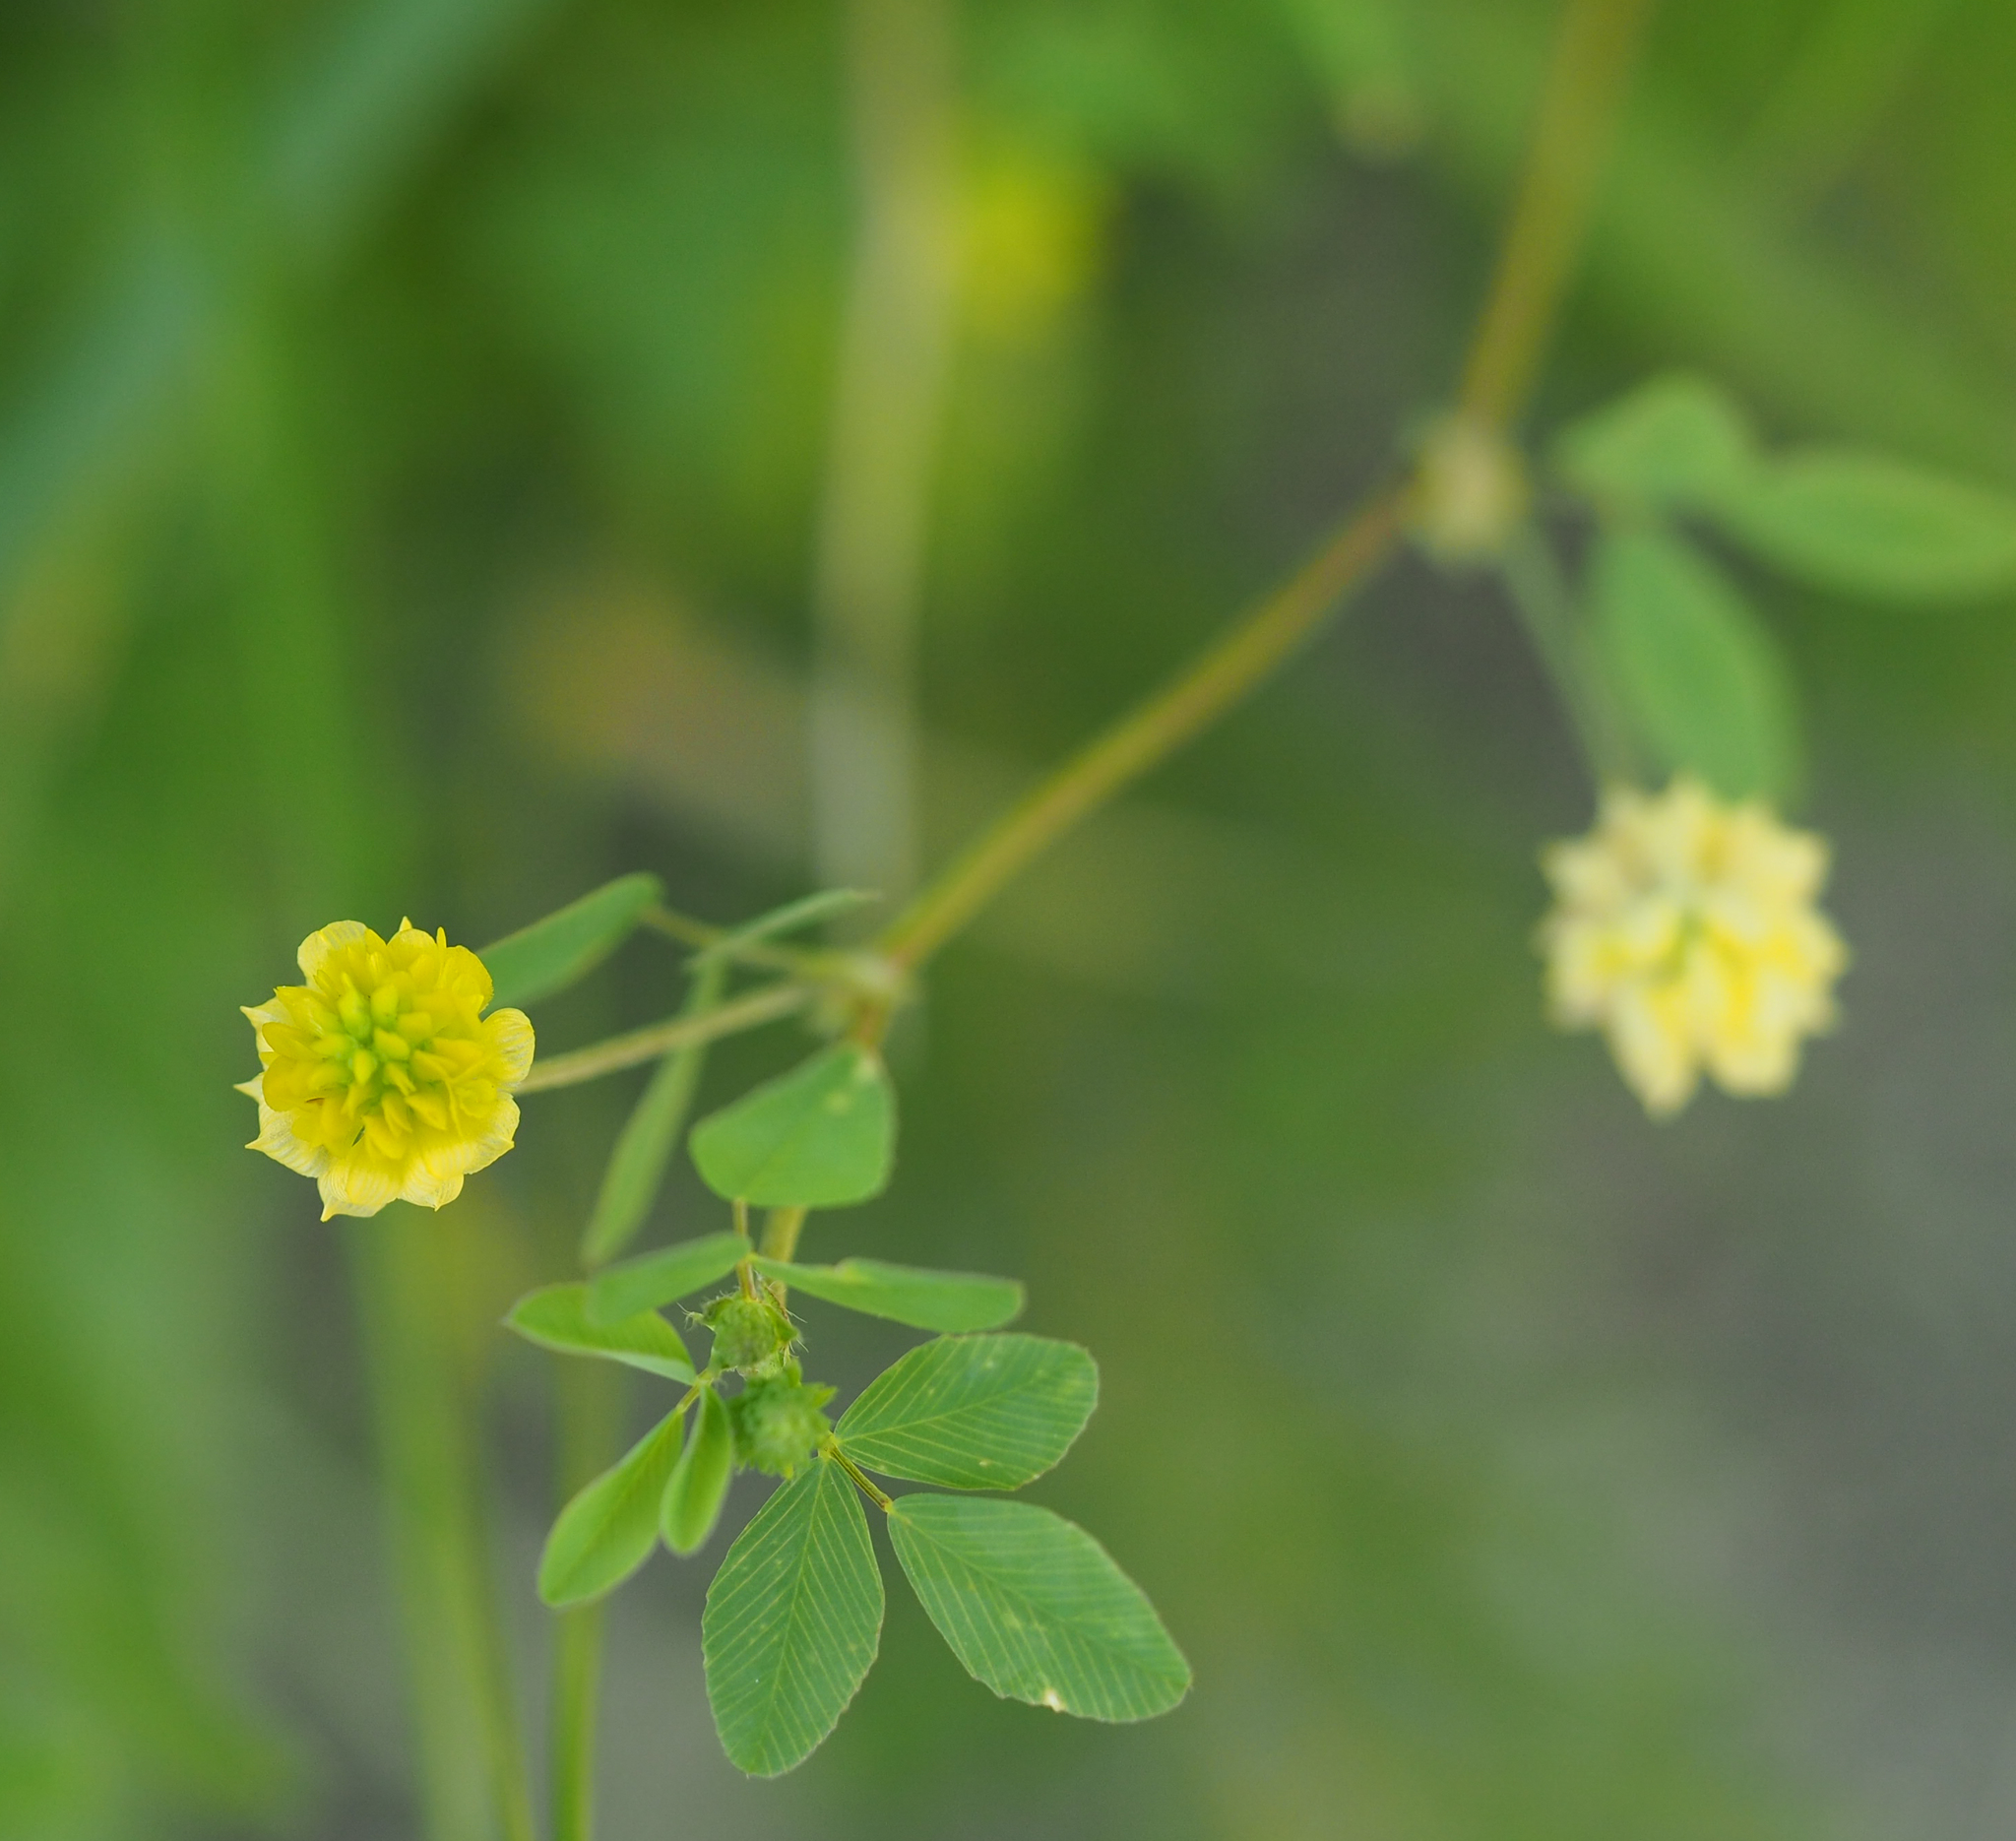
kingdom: Plantae
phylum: Tracheophyta
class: Magnoliopsida
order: Fabales
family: Fabaceae
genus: Trifolium
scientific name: Trifolium campestre
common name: Field clover
